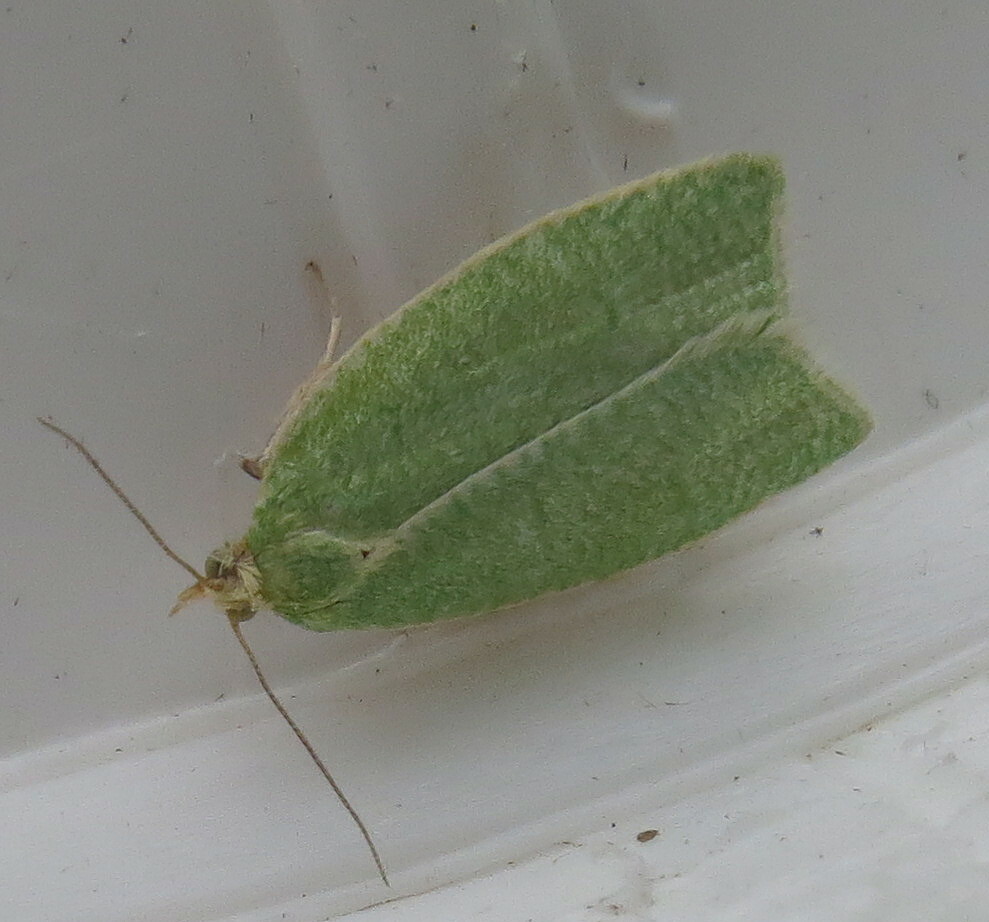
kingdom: Animalia
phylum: Arthropoda
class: Insecta
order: Lepidoptera
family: Tortricidae
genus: Tortrix
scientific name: Tortrix viridana
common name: Green oak tortrix
